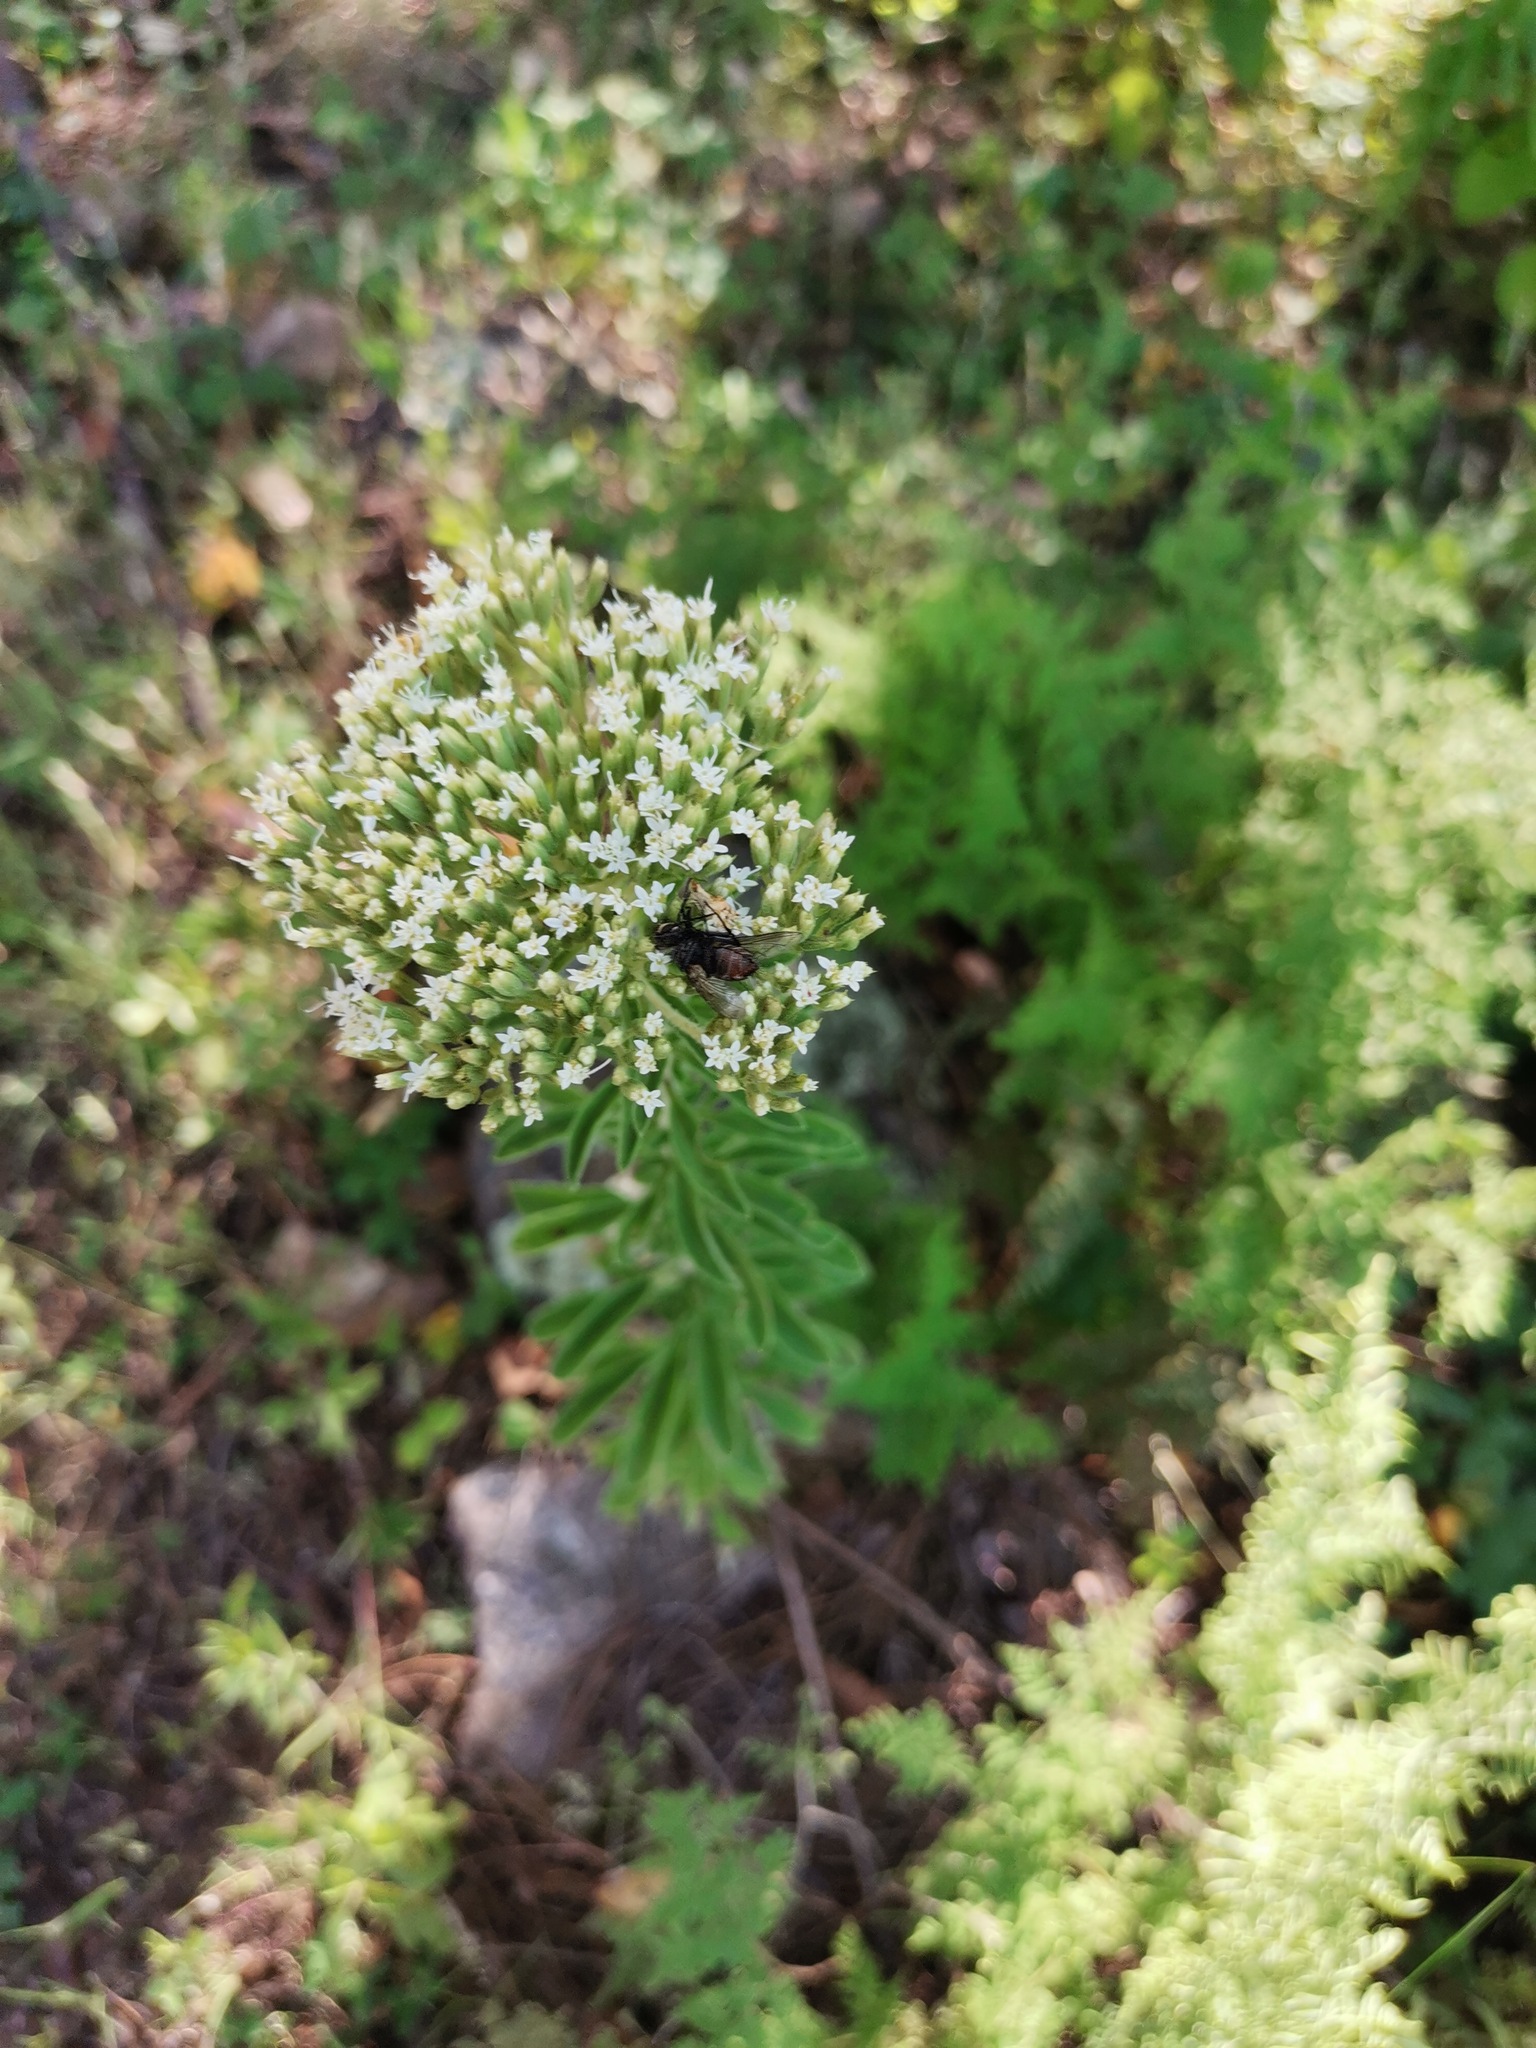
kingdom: Plantae
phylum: Tracheophyta
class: Magnoliopsida
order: Asterales
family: Asteraceae
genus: Stevia
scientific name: Stevia serrata
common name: Sawtooth candyleaf
